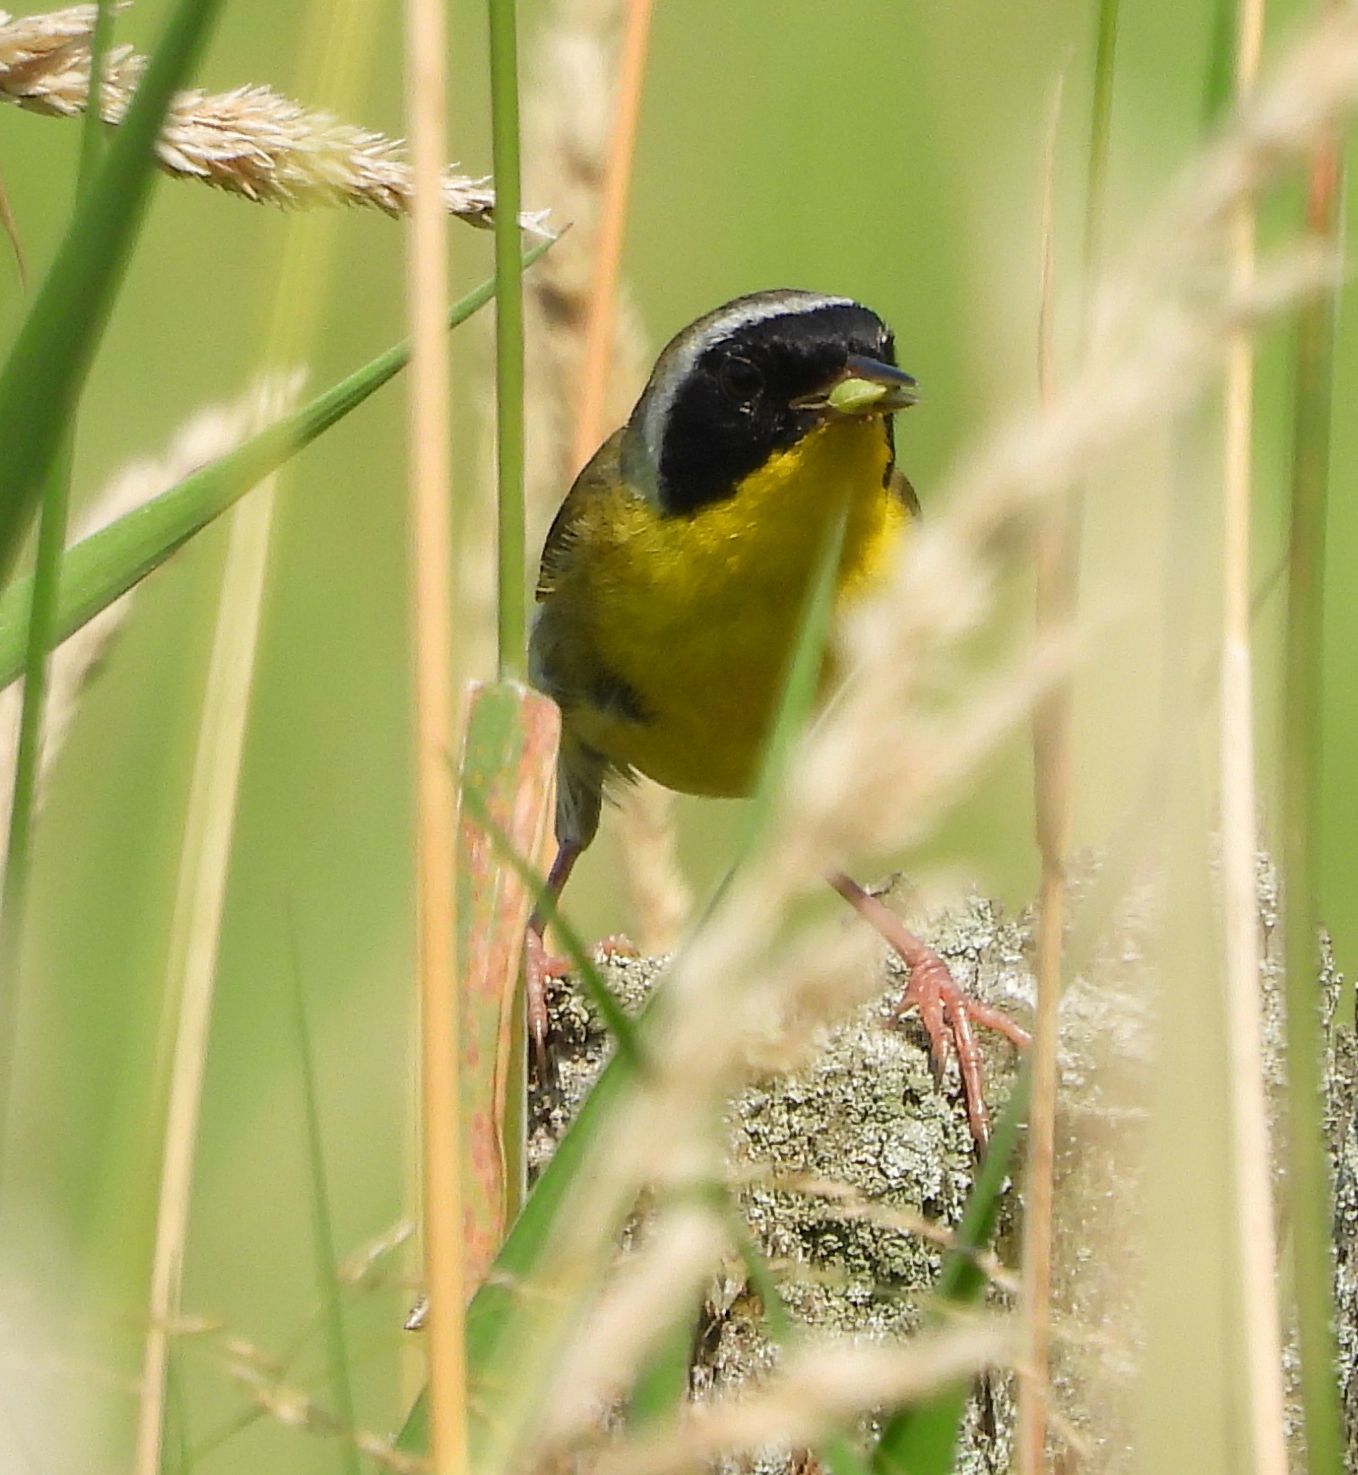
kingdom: Animalia
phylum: Chordata
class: Aves
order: Passeriformes
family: Parulidae
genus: Geothlypis
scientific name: Geothlypis trichas
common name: Common yellowthroat
